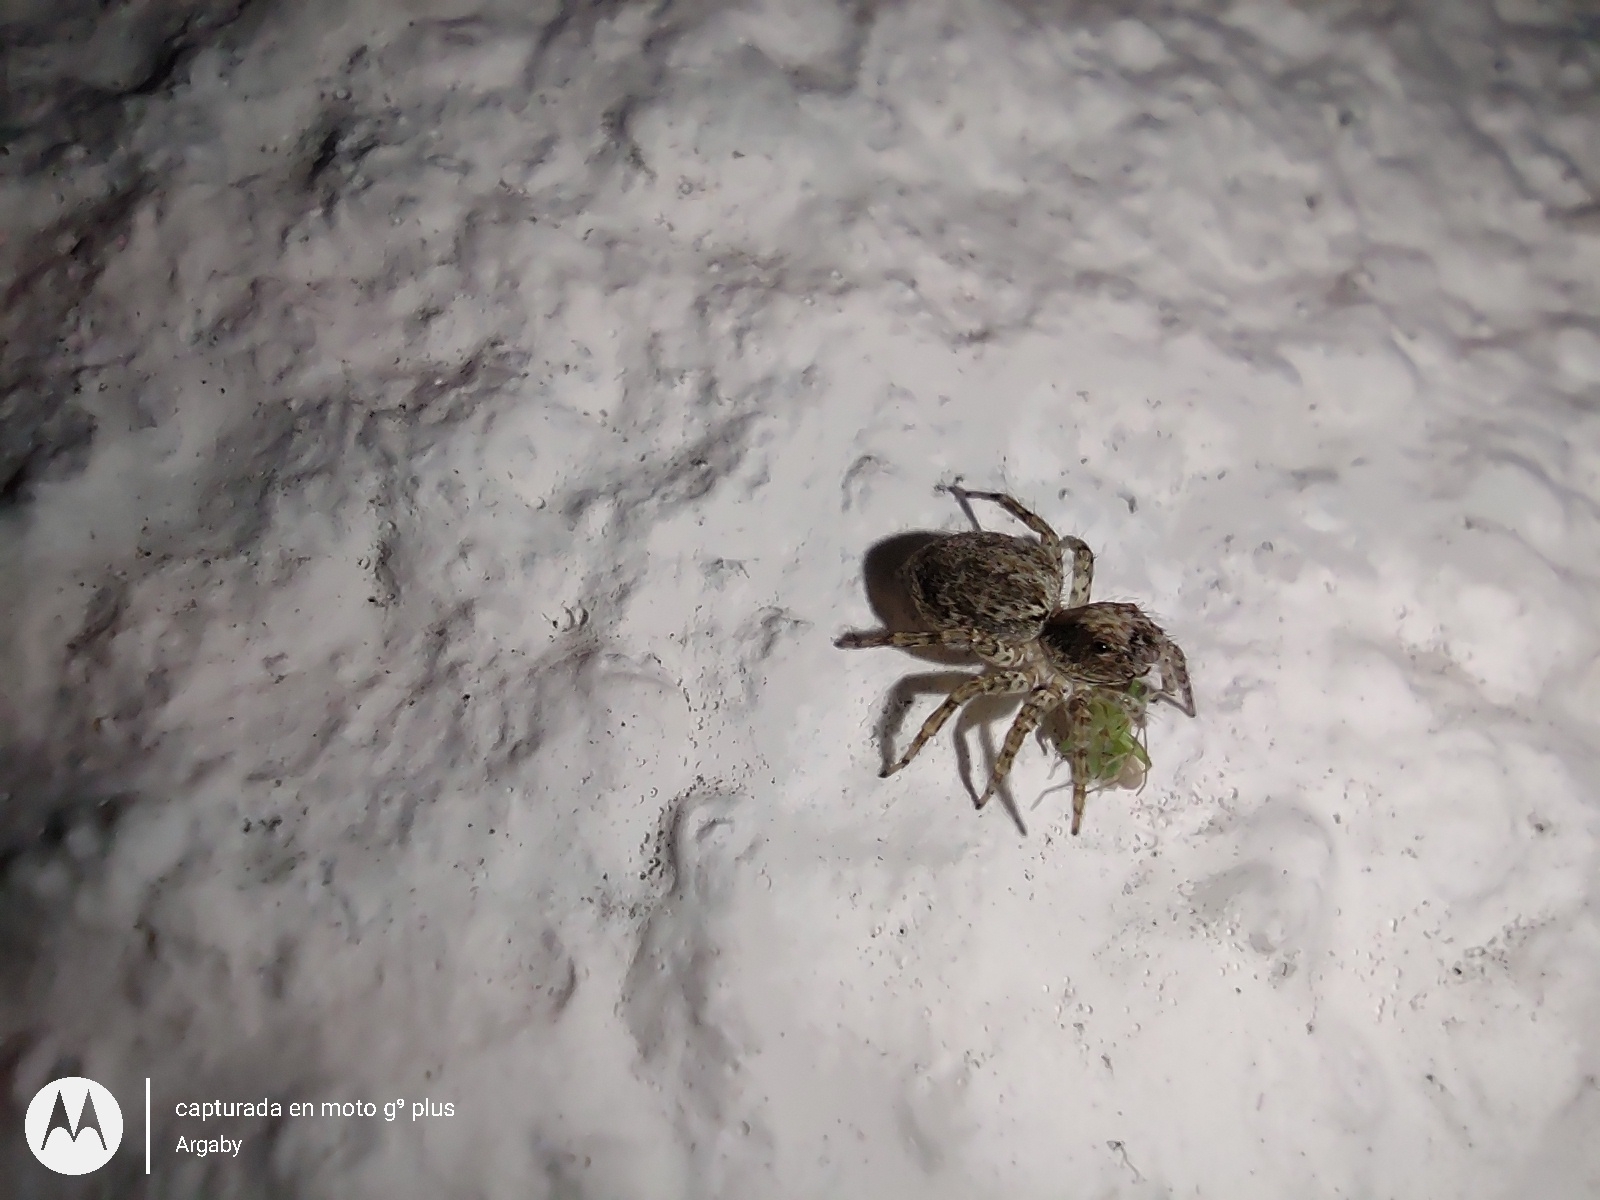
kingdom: Animalia
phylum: Arthropoda
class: Arachnida
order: Araneae
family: Salticidae
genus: Saitis
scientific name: Saitis variegatus
